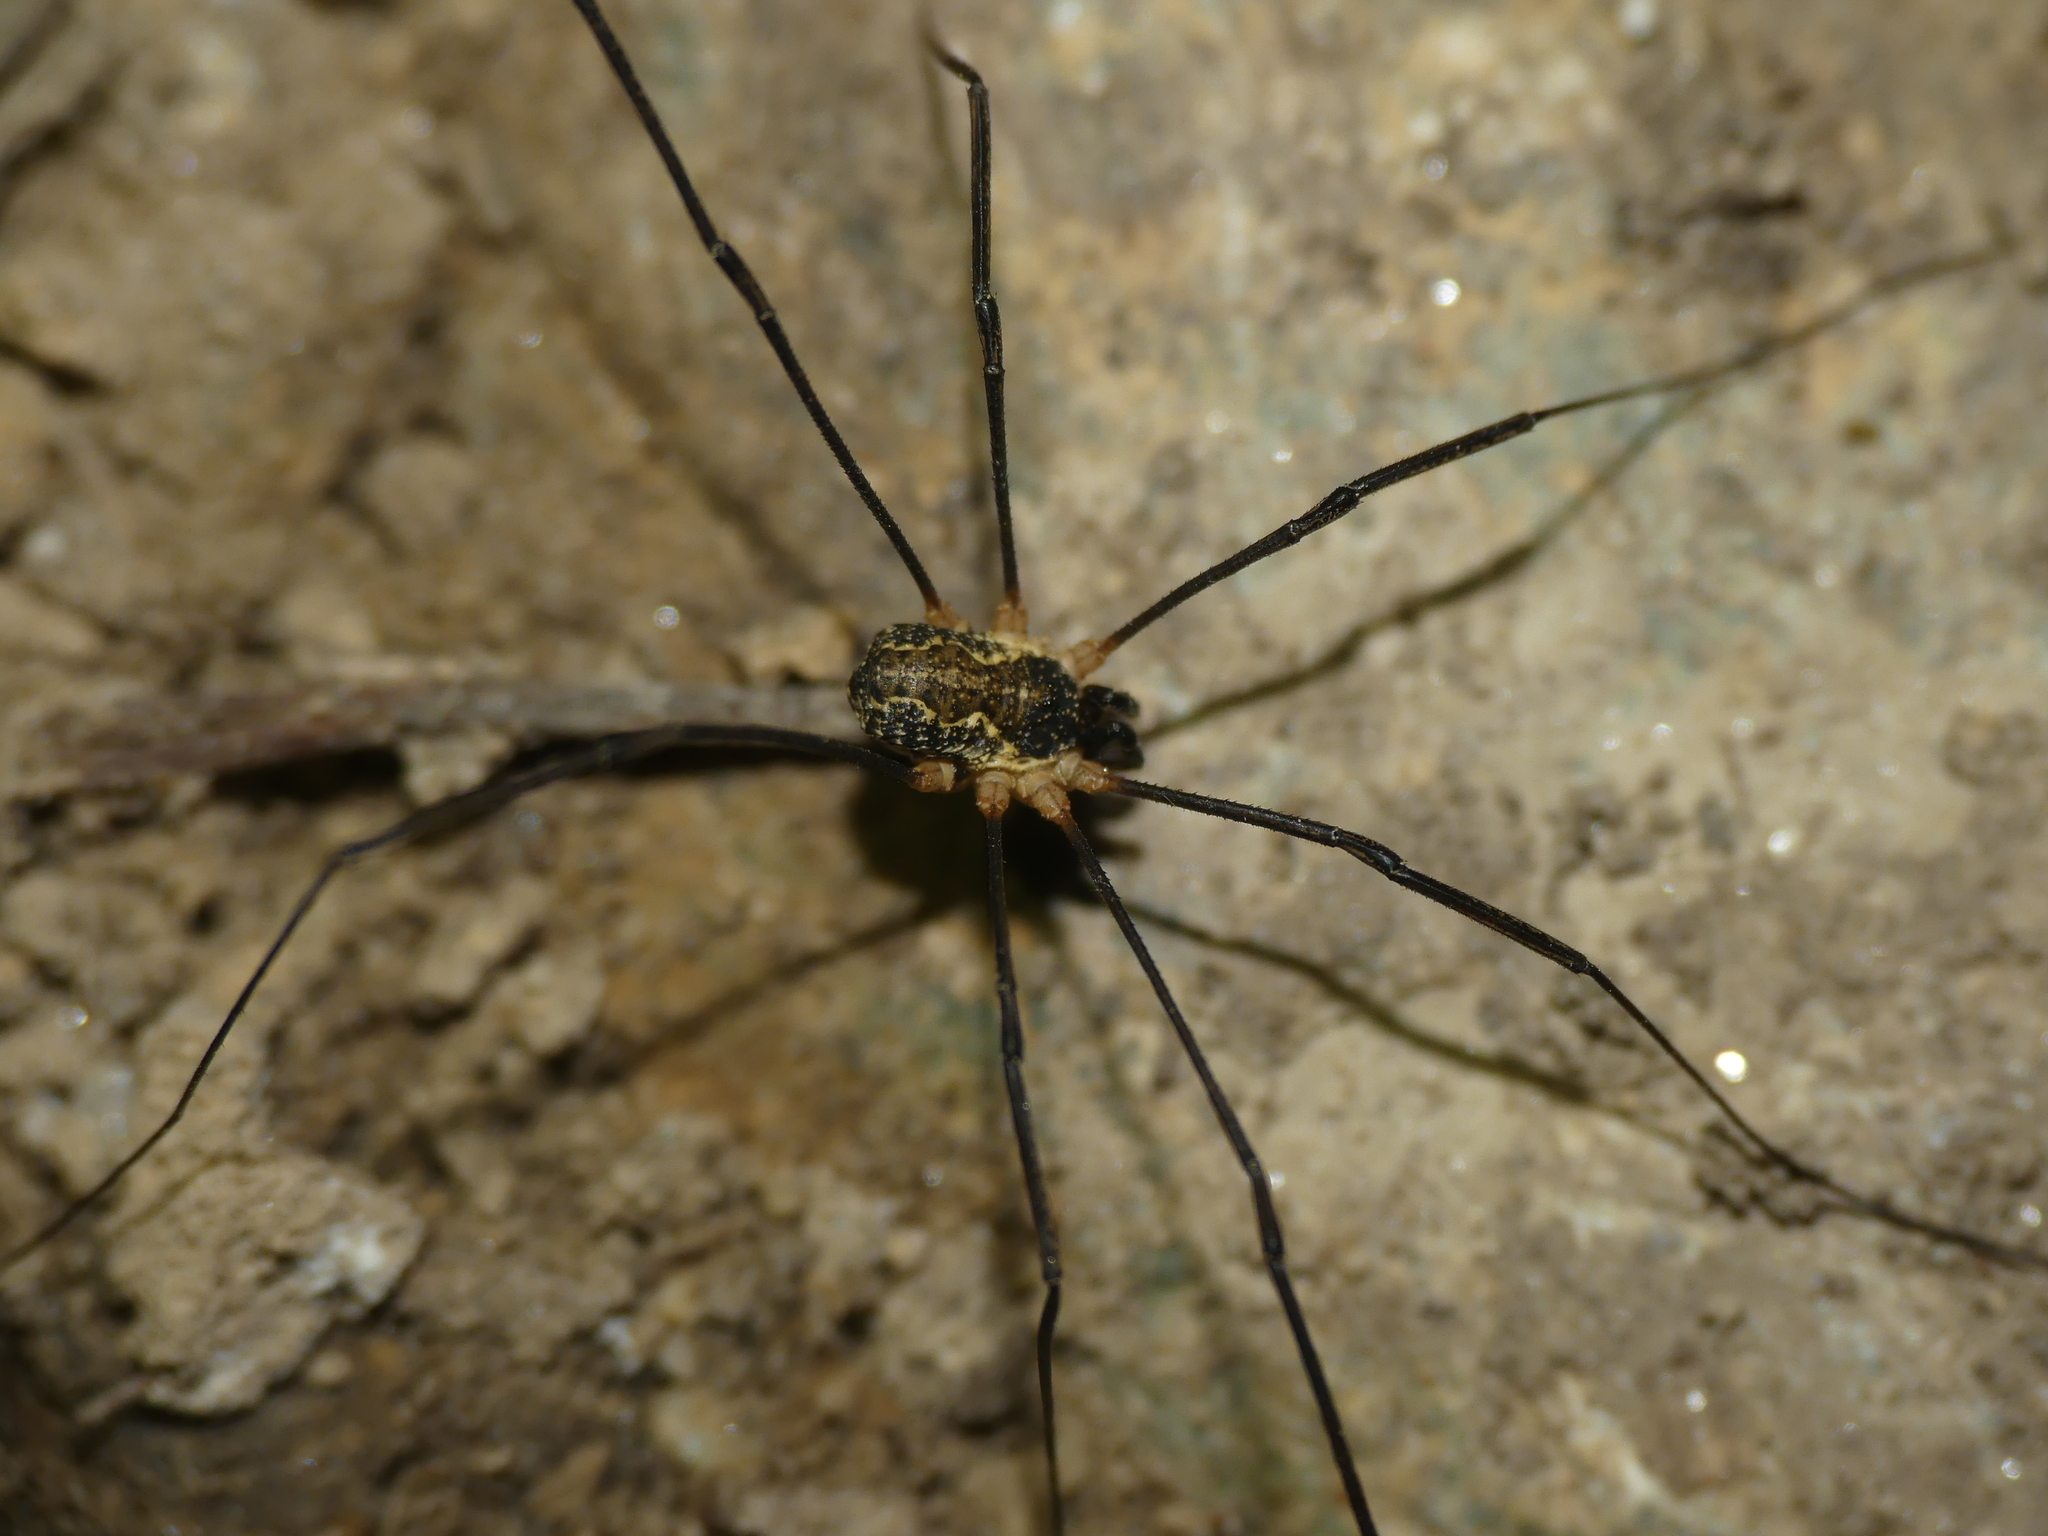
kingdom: Animalia
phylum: Arthropoda
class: Arachnida
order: Opiliones
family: Phalangiidae
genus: Mitopus
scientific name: Mitopus morio
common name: Saddleback harvestman
